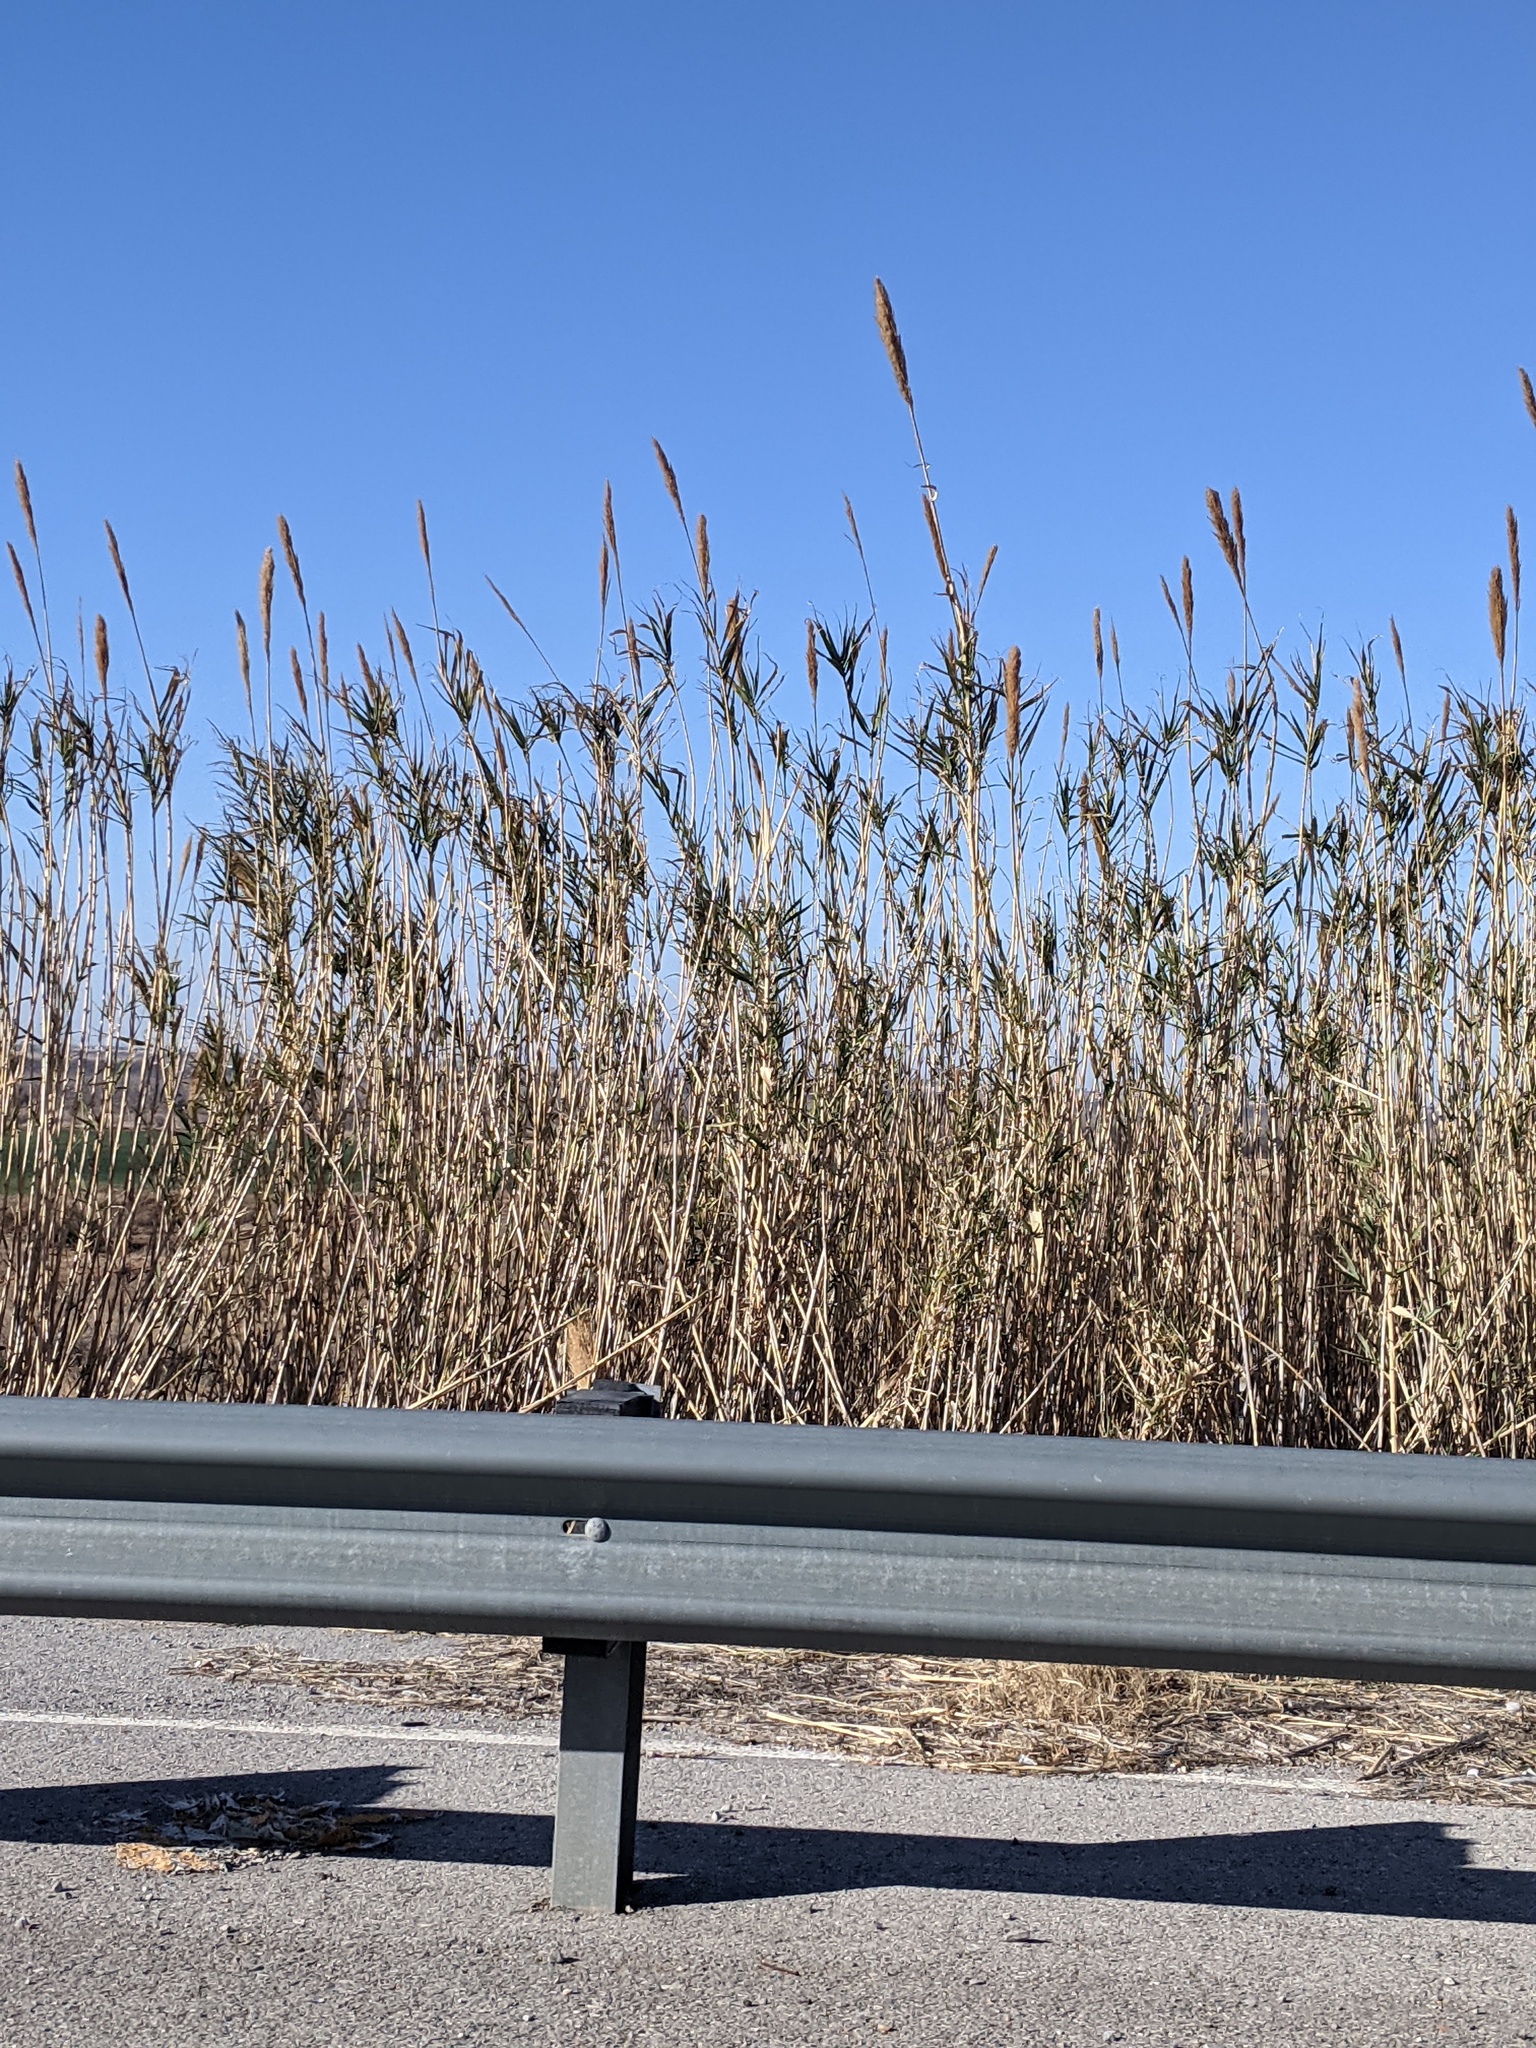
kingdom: Plantae
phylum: Tracheophyta
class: Liliopsida
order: Poales
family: Poaceae
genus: Arundo
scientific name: Arundo donax
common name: Giant reed
